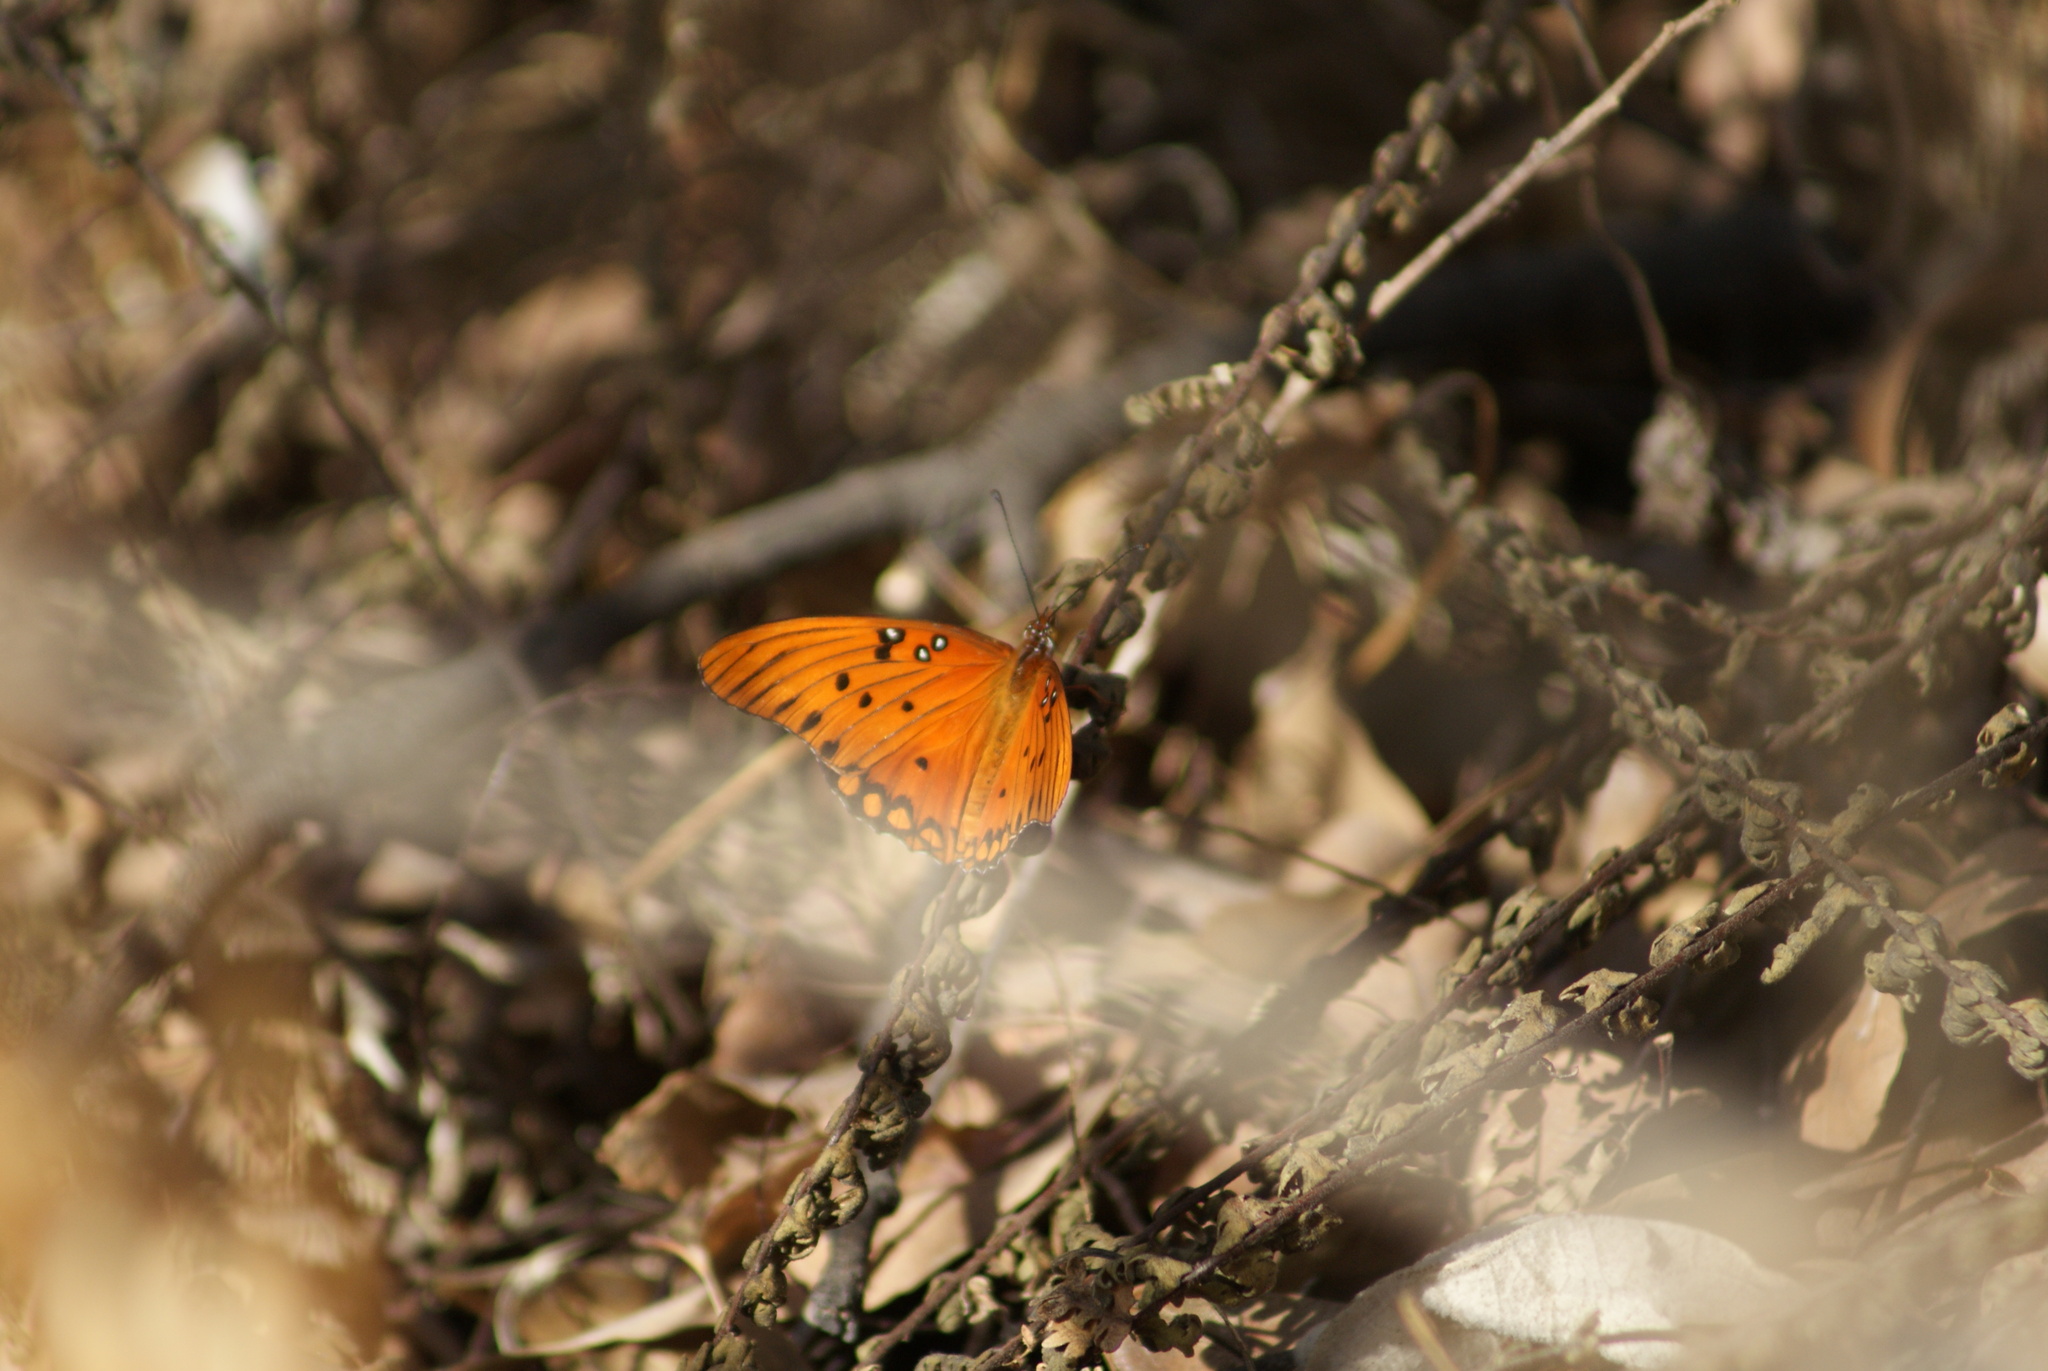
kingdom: Animalia
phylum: Arthropoda
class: Insecta
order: Lepidoptera
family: Nymphalidae
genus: Dione
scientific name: Dione vanillae
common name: Gulf fritillary
